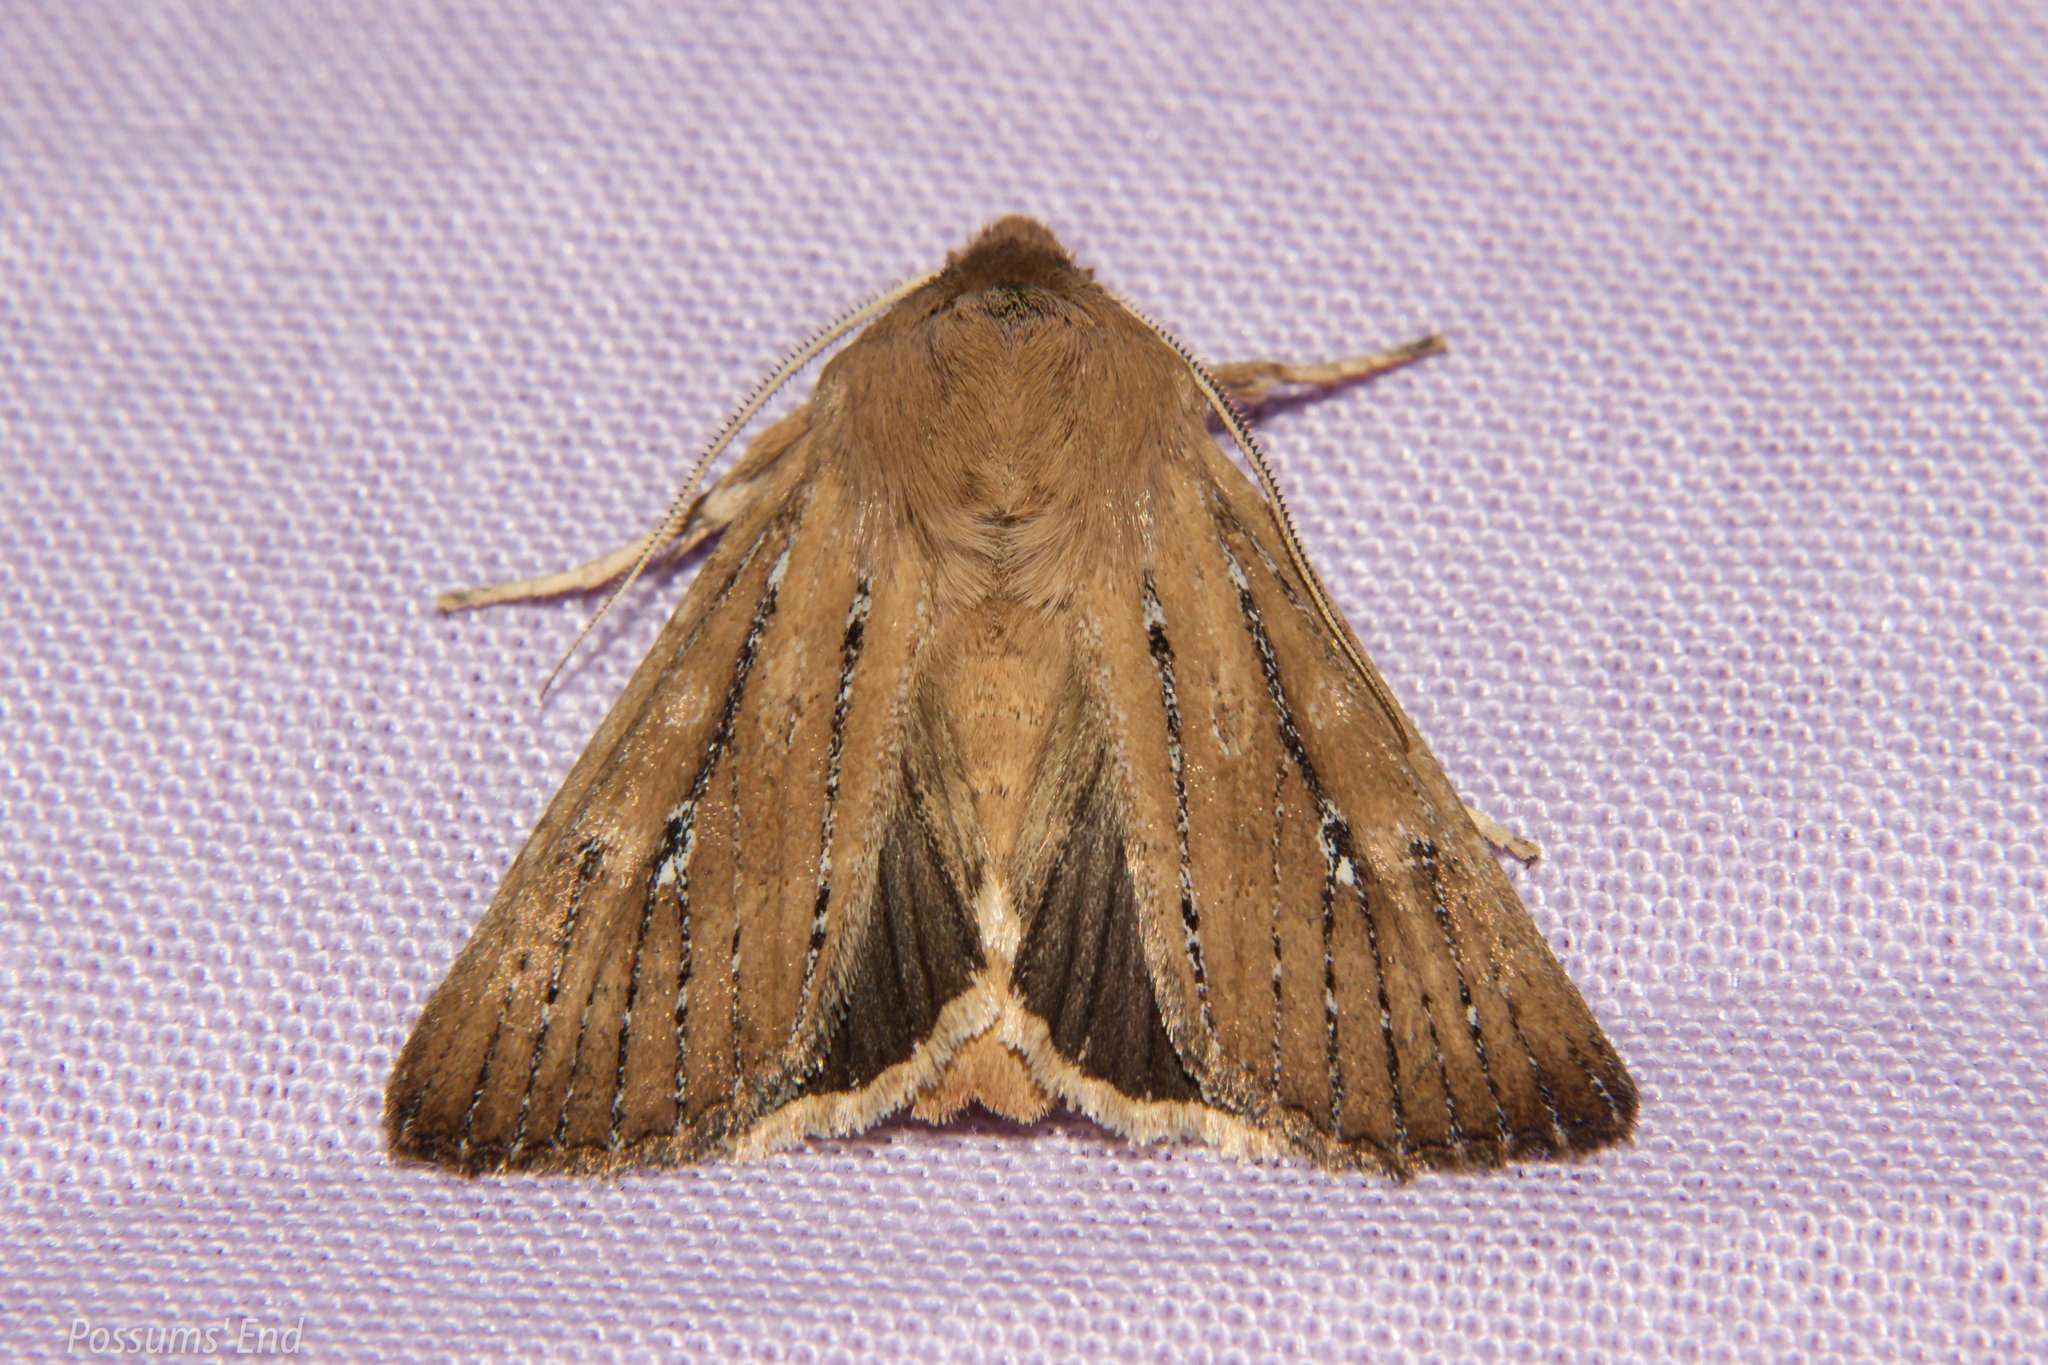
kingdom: Animalia
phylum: Arthropoda
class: Insecta
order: Lepidoptera
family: Noctuidae
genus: Ichneutica
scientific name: Ichneutica
